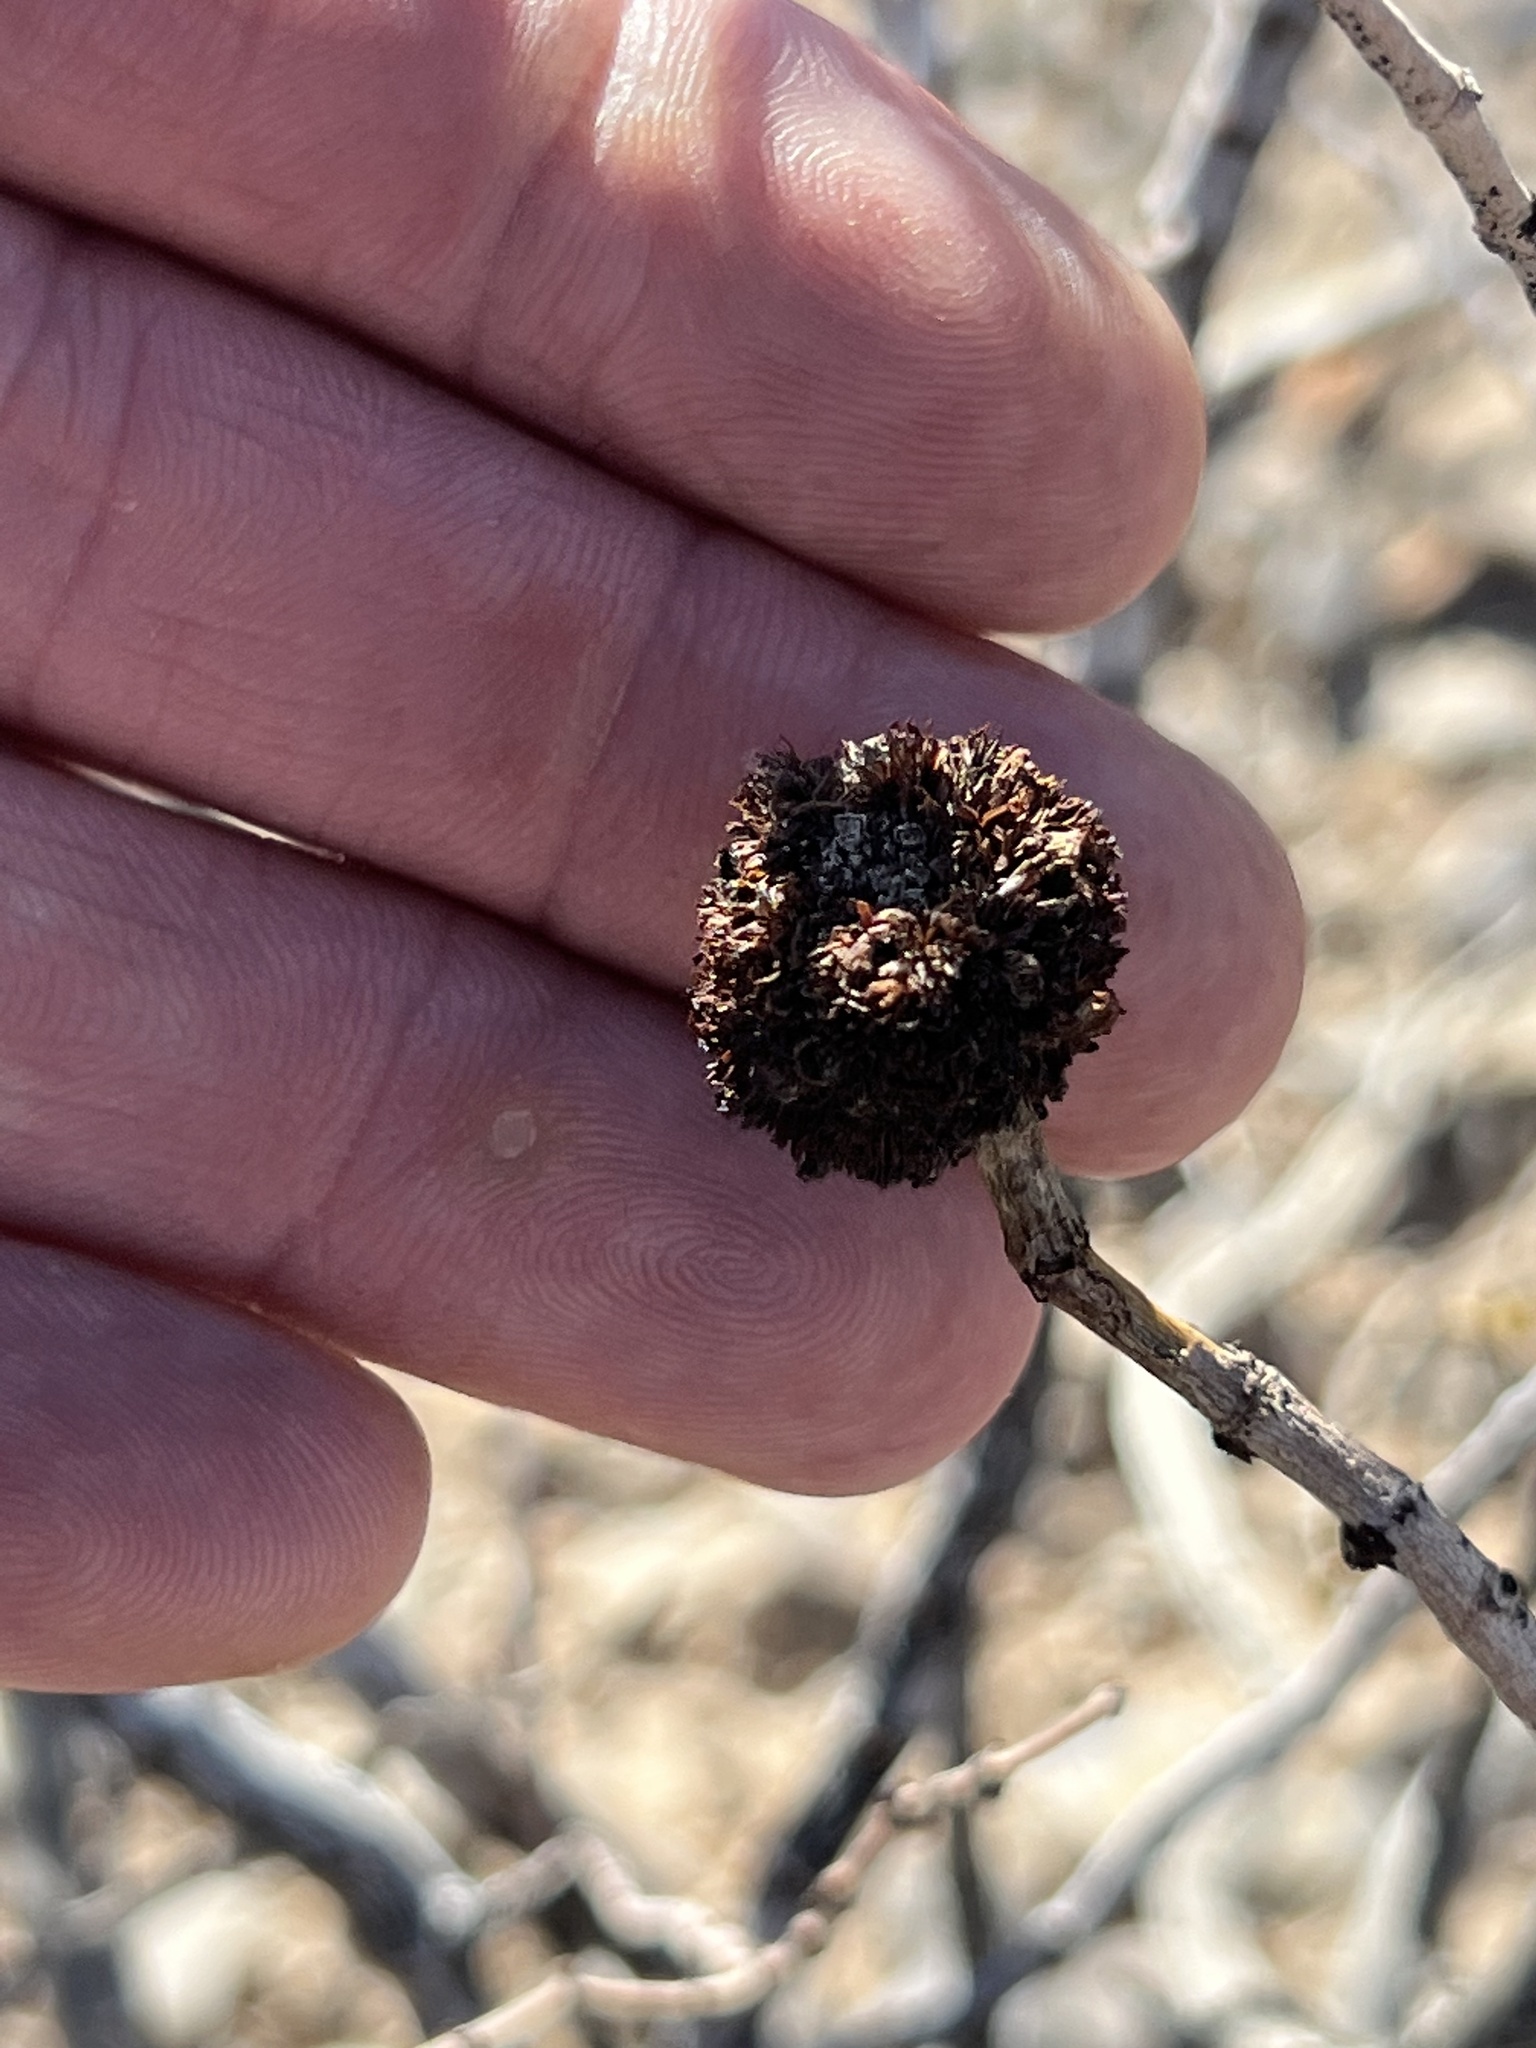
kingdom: Animalia
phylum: Arthropoda
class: Insecta
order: Diptera
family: Cecidomyiidae
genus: Asphondylia
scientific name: Asphondylia auripila
